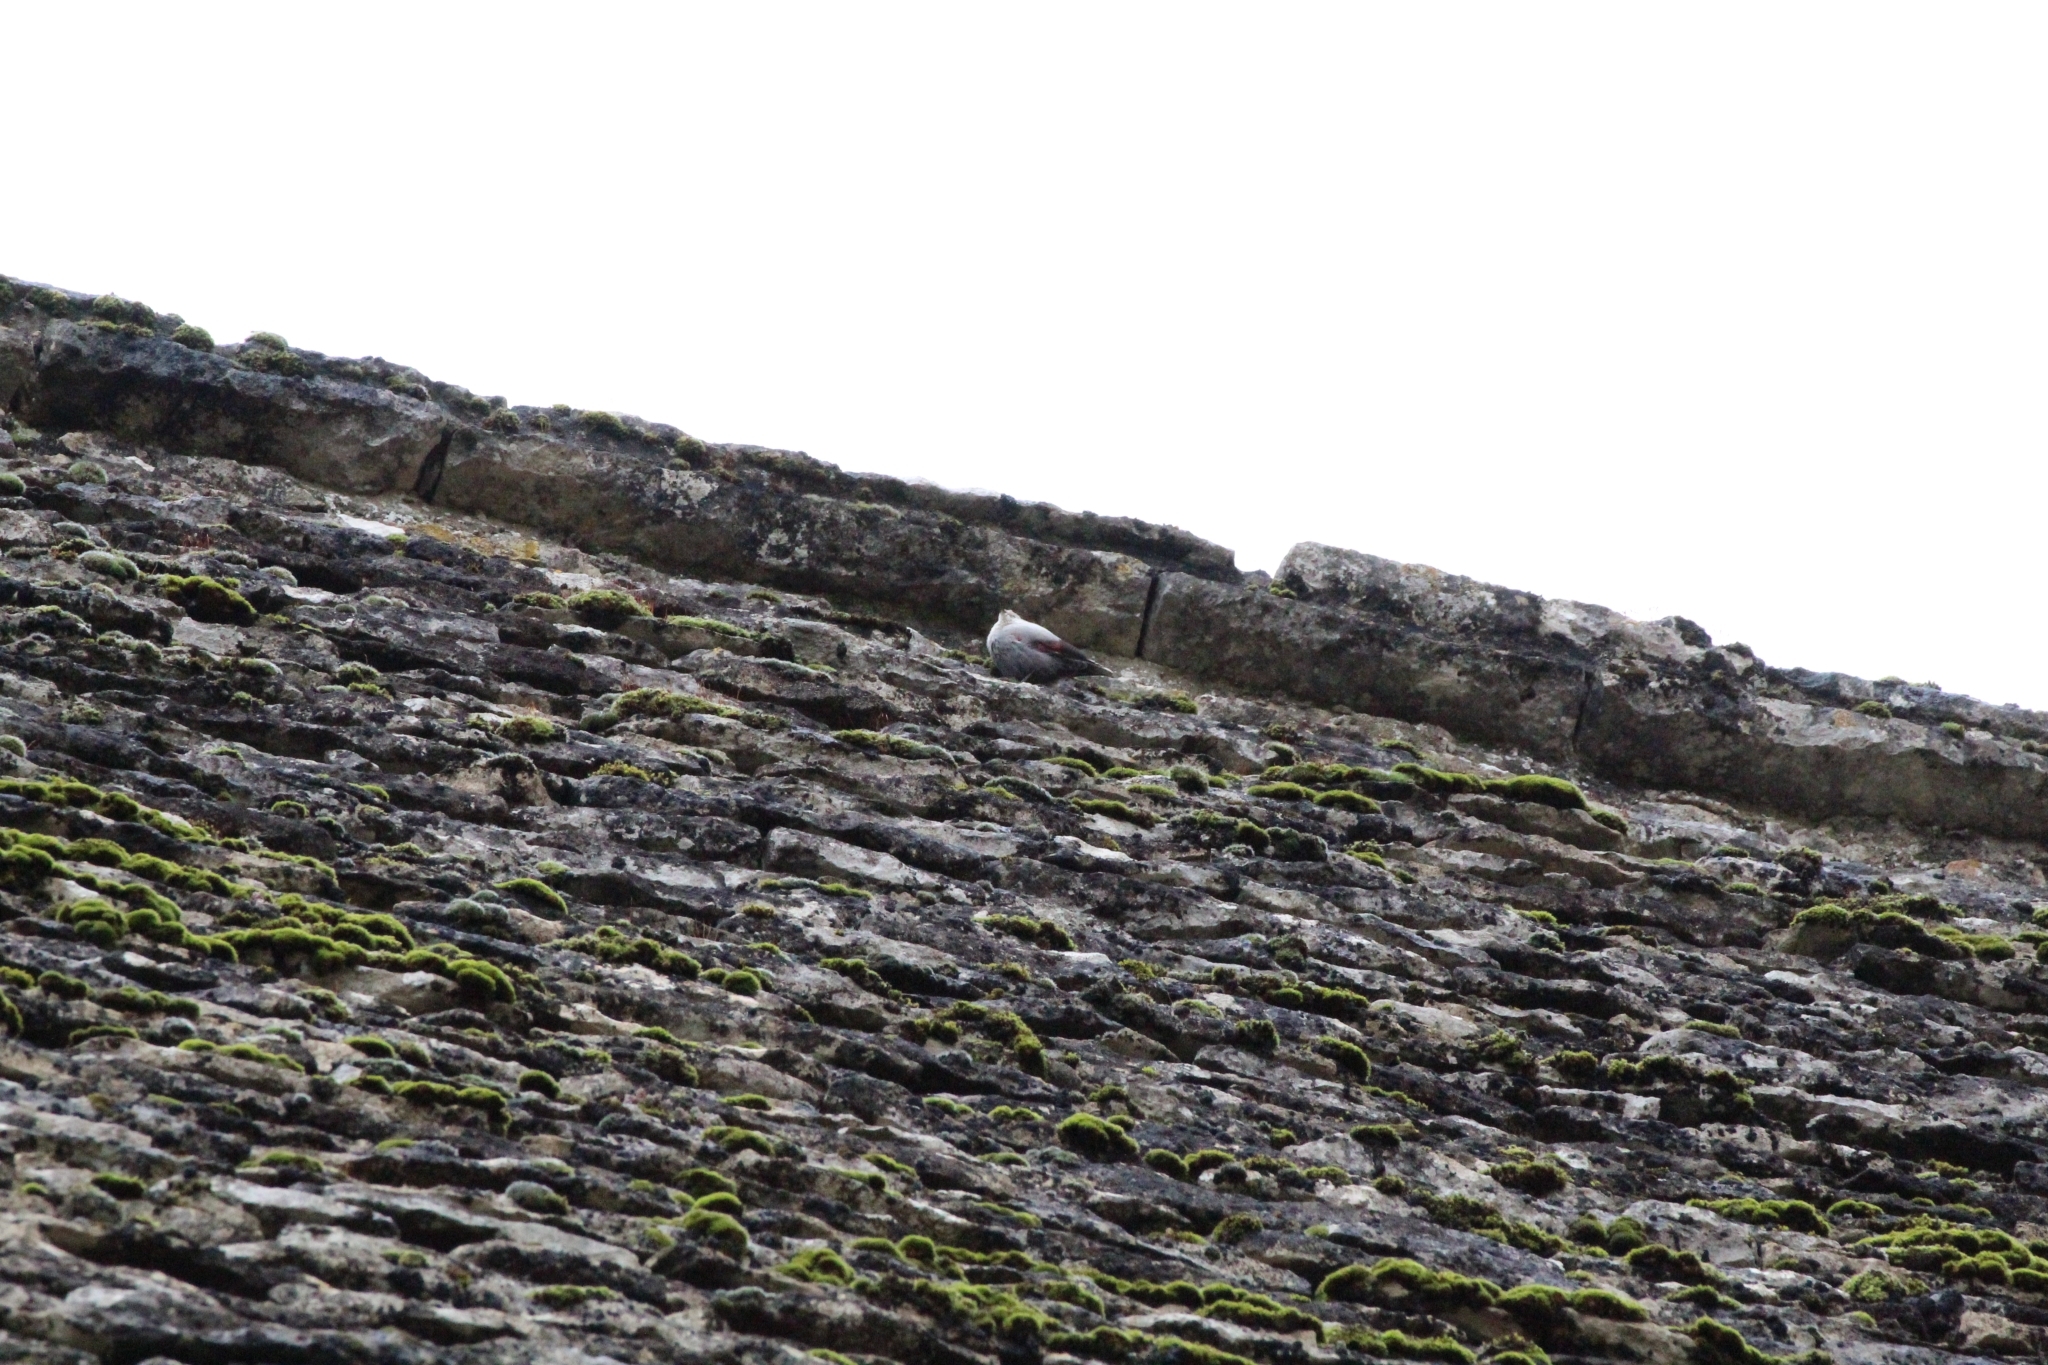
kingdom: Animalia
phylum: Chordata
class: Aves
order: Passeriformes
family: Tichodromidae
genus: Tichodroma
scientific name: Tichodroma muraria
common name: Wallcreeper
